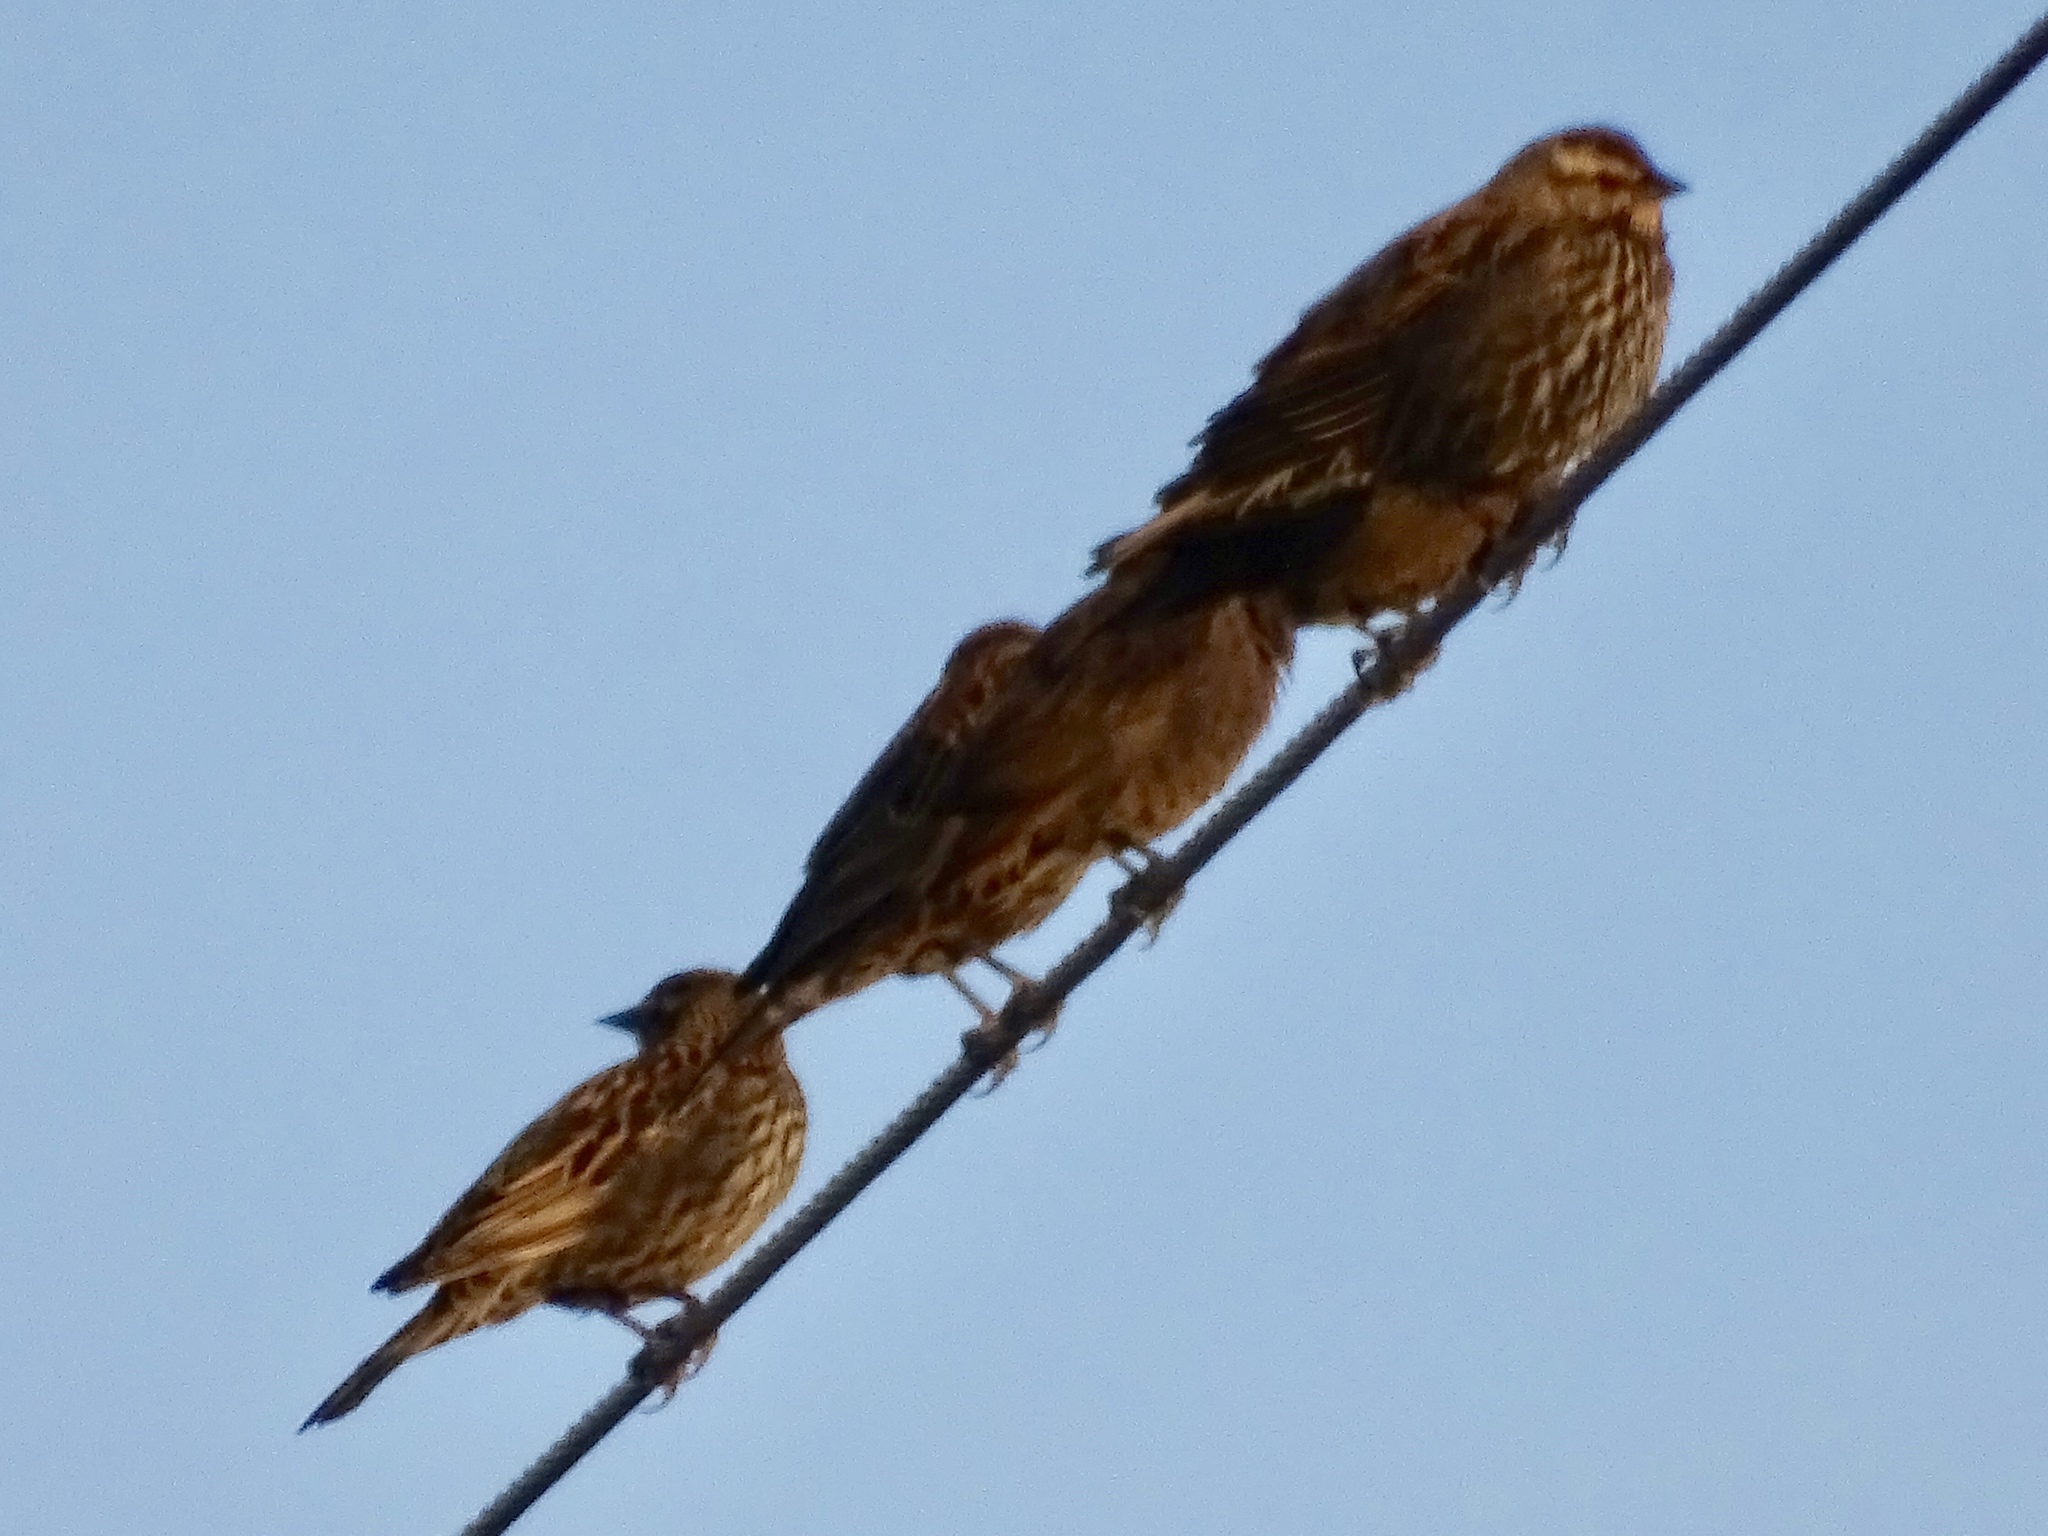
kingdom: Animalia
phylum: Chordata
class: Aves
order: Passeriformes
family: Icteridae
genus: Agelaius
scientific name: Agelaius phoeniceus
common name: Red-winged blackbird
